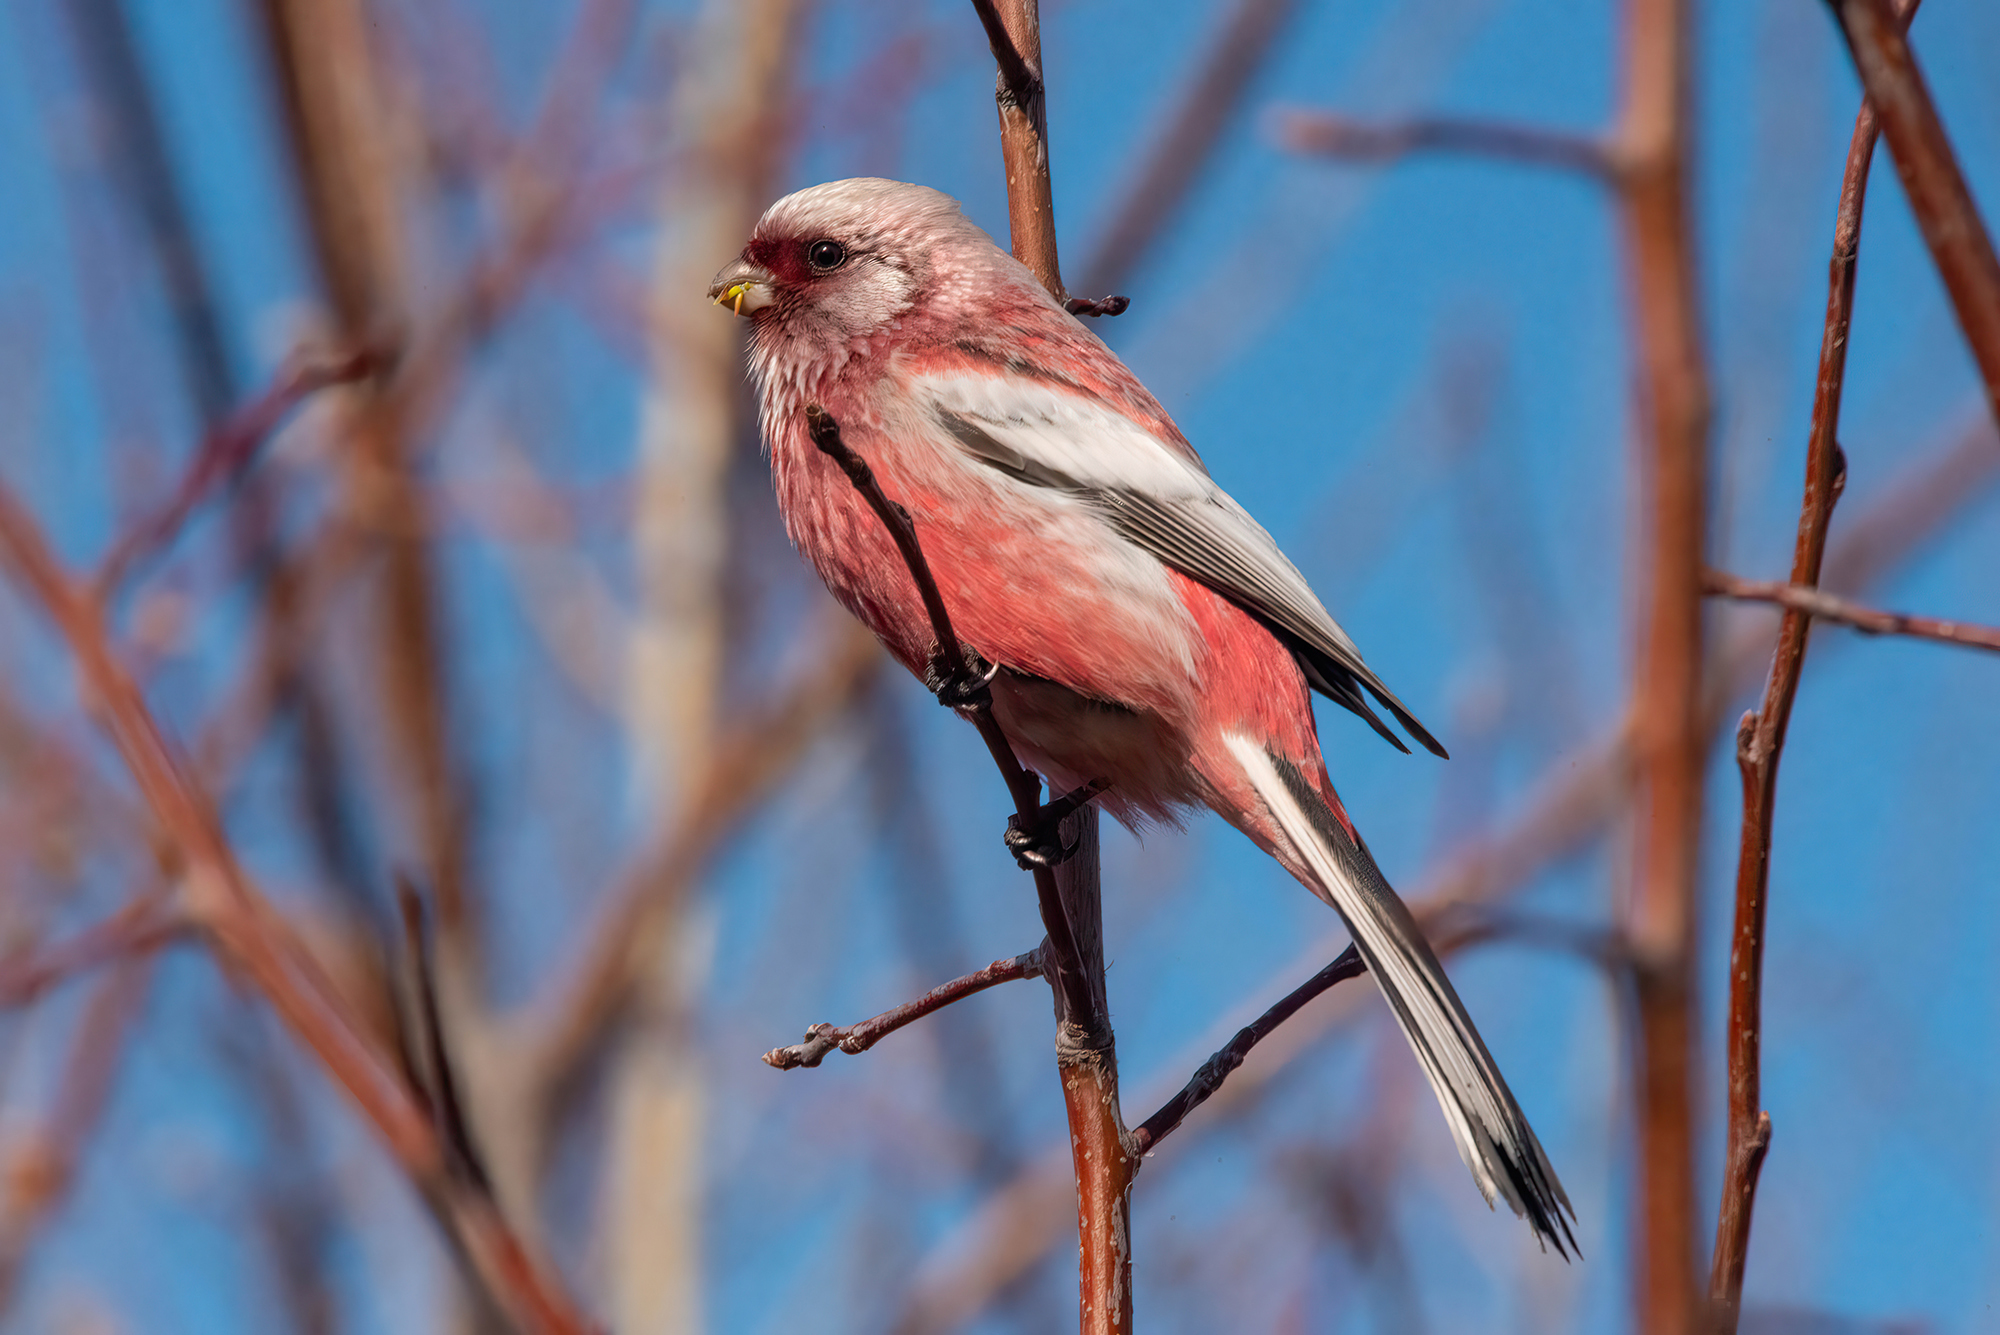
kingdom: Animalia
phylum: Chordata
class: Aves
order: Passeriformes
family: Fringillidae
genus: Carpodacus
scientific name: Carpodacus sibiricus
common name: Long-tailed rosefinch
